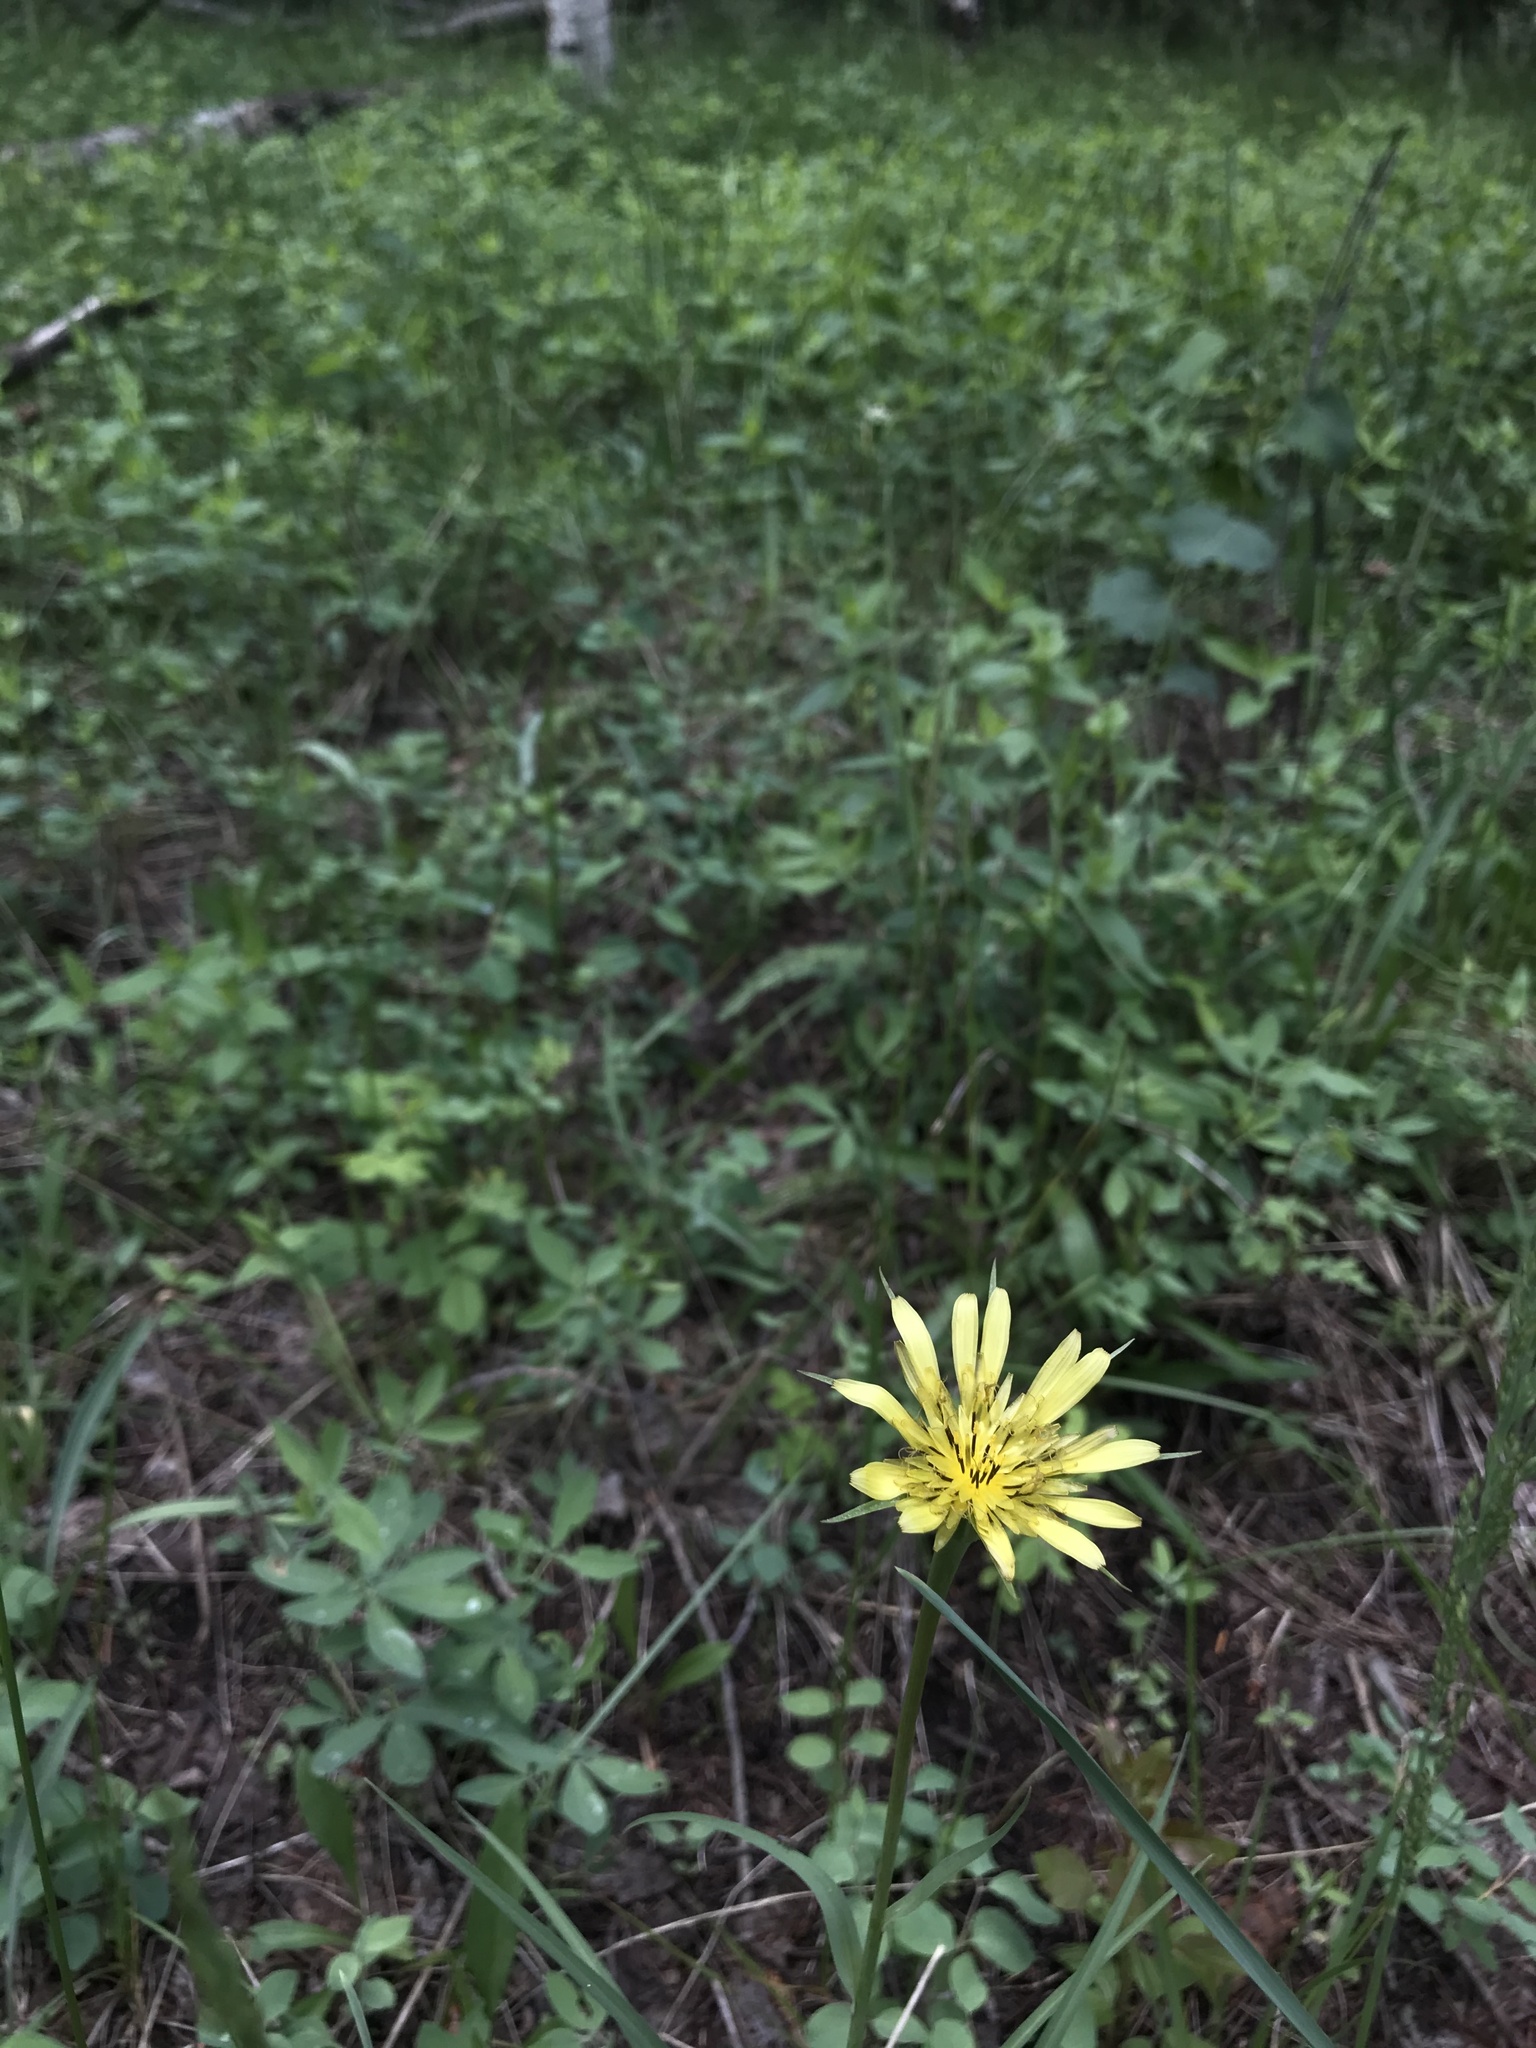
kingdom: Plantae
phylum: Tracheophyta
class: Magnoliopsida
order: Asterales
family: Asteraceae
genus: Tragopogon
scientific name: Tragopogon dubius
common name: Yellow salsify
